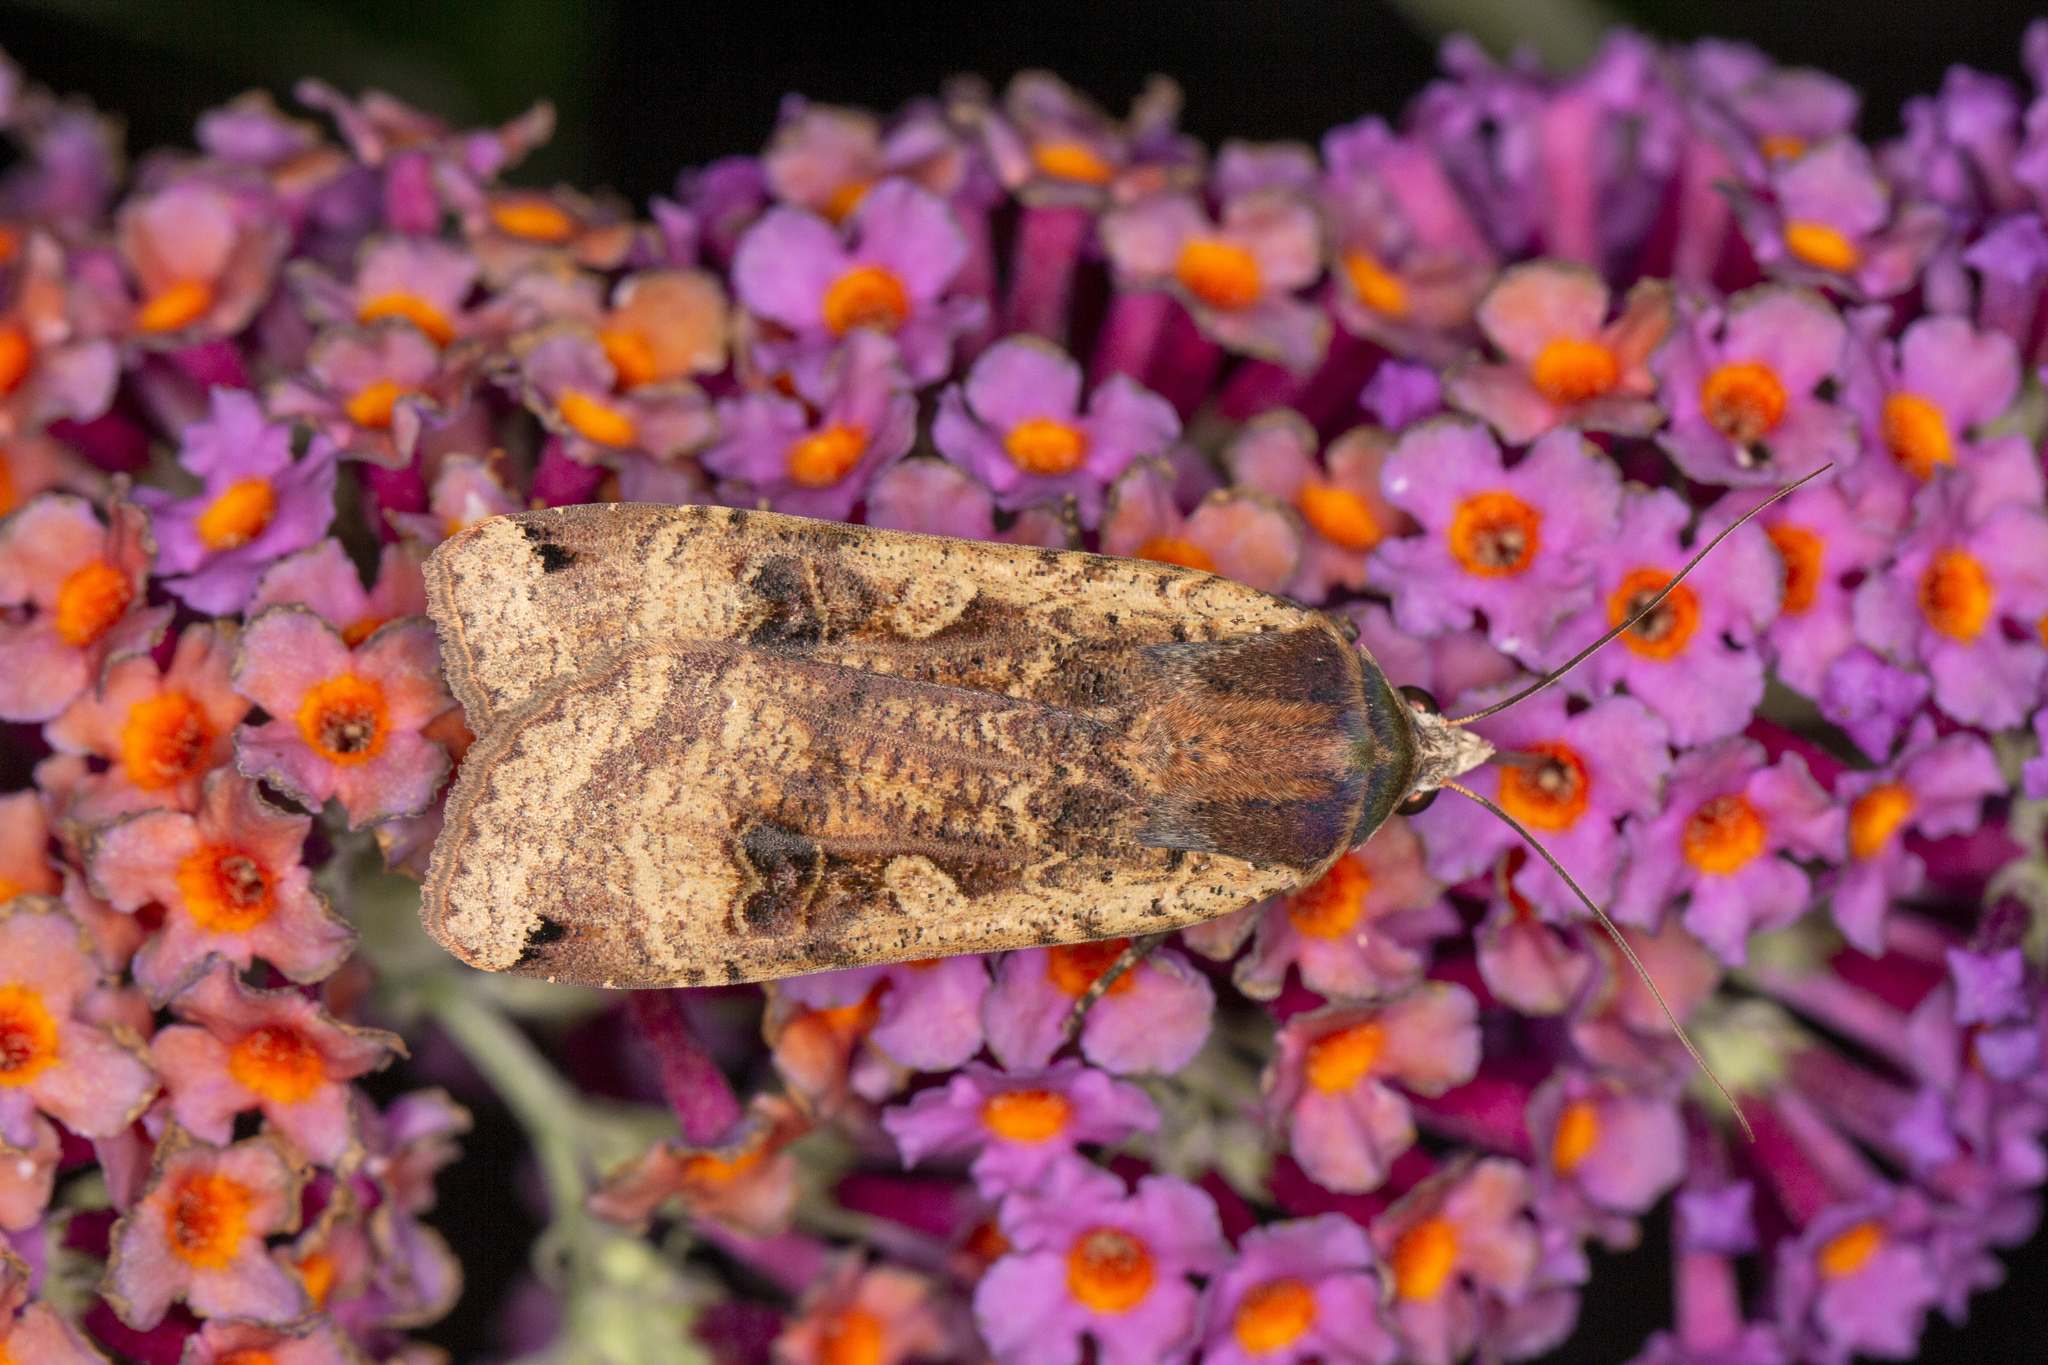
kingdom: Animalia
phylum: Arthropoda
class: Insecta
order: Lepidoptera
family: Noctuidae
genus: Noctua
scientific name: Noctua pronuba
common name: Large yellow underwing
